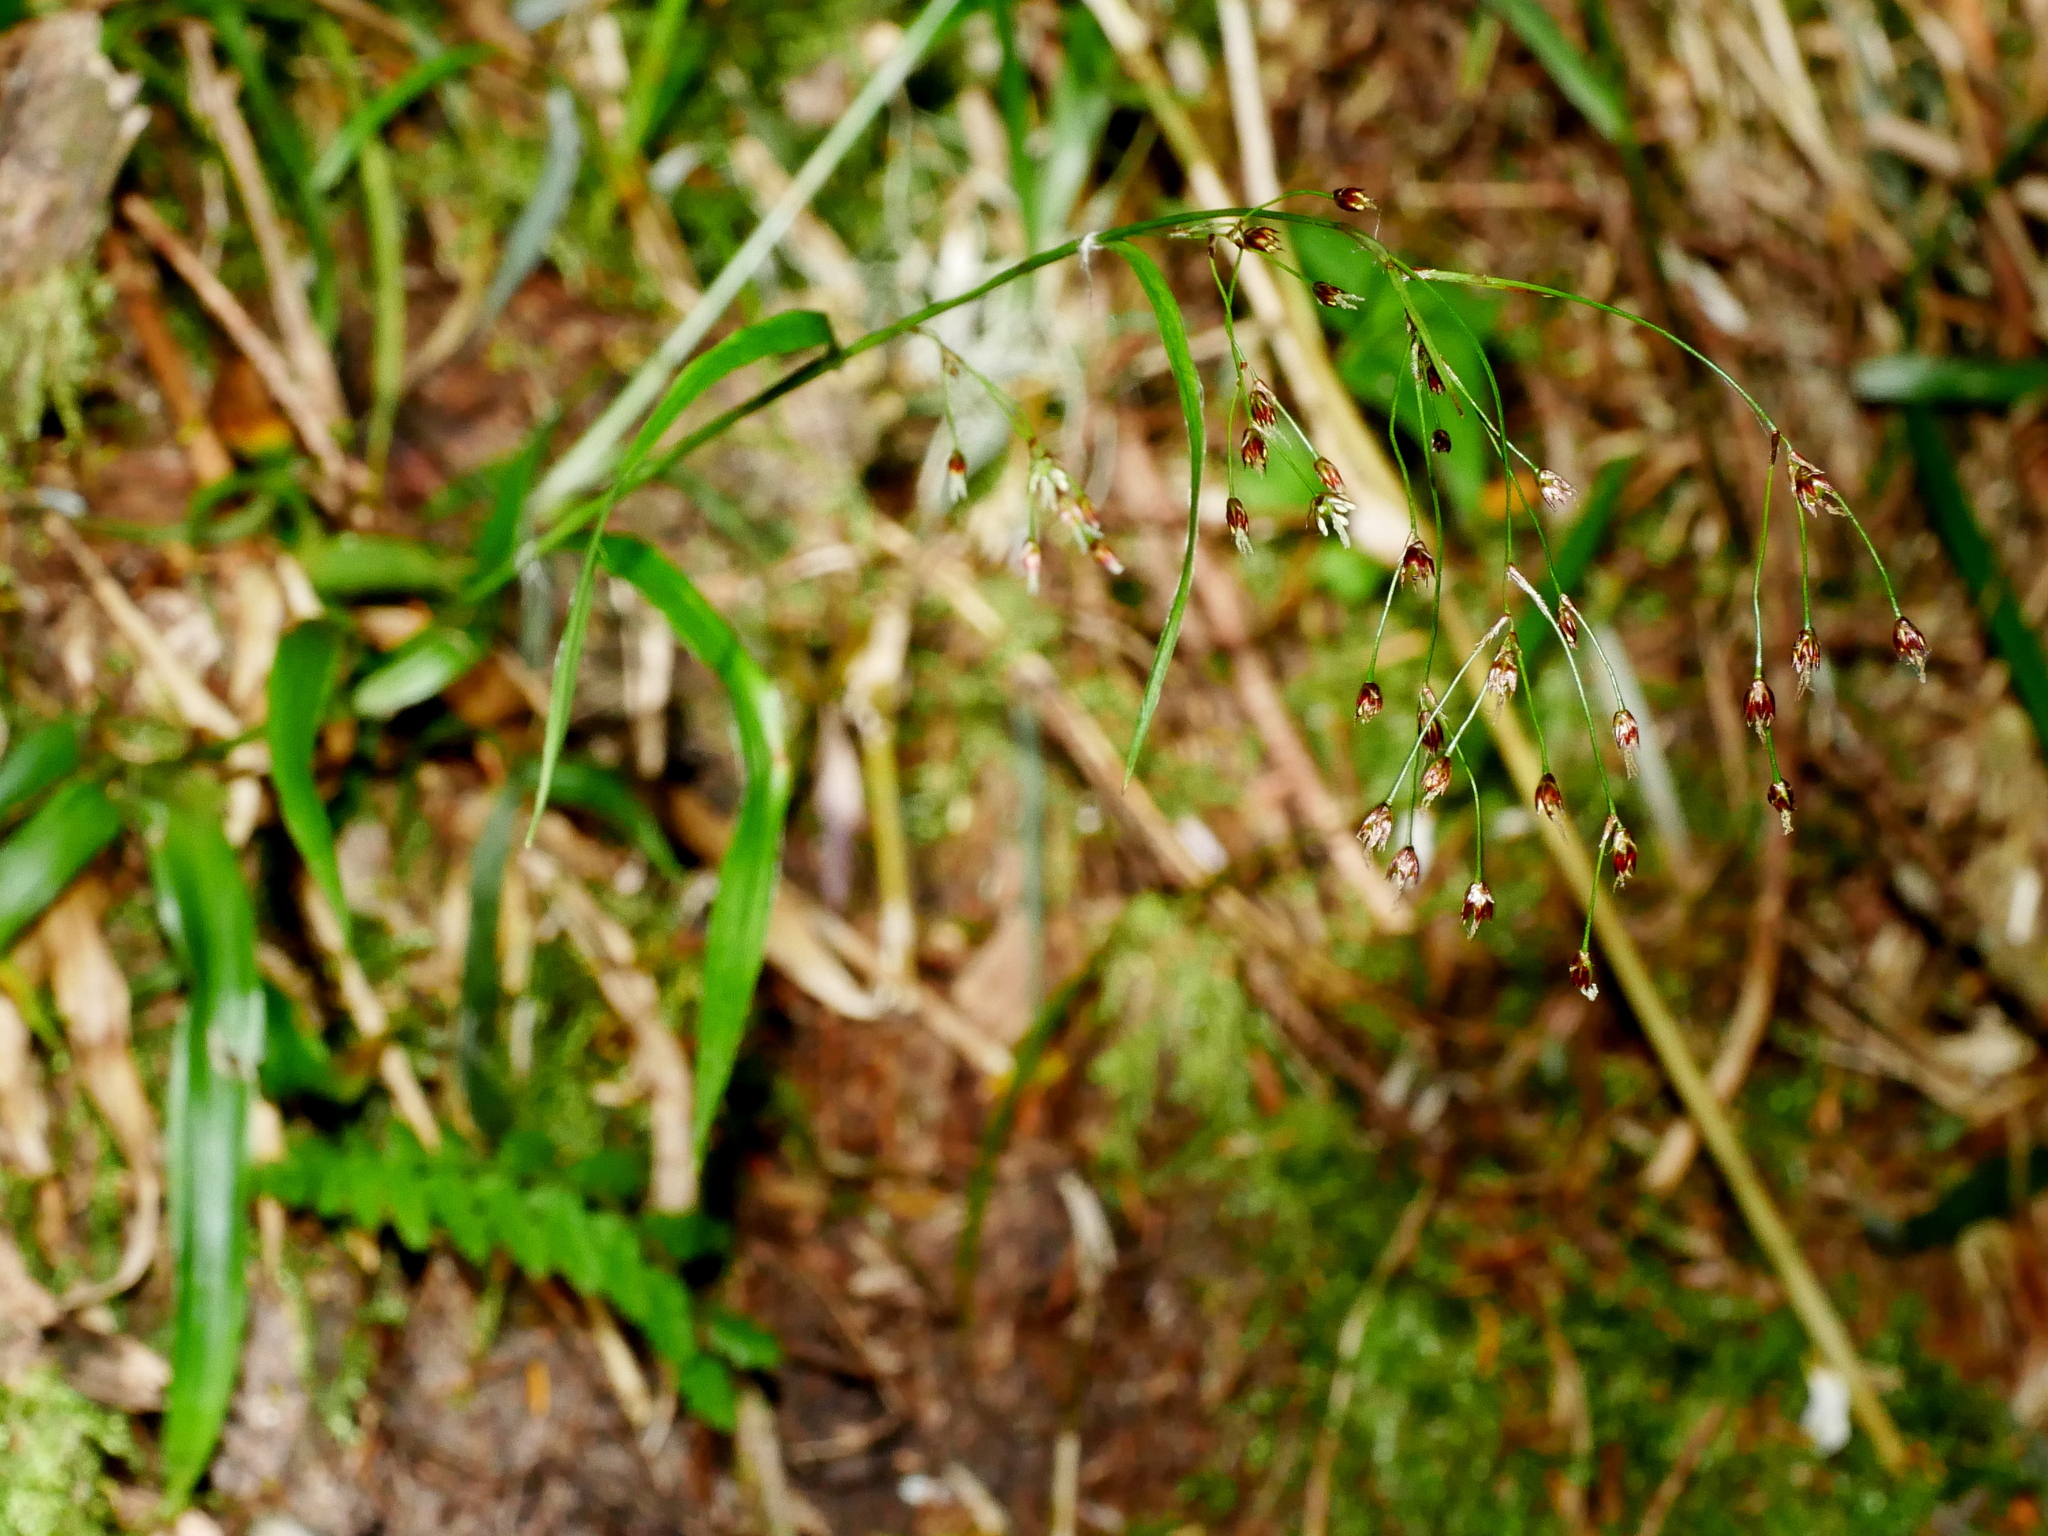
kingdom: Plantae
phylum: Tracheophyta
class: Liliopsida
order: Poales
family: Juncaceae
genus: Luzula
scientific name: Luzula effusa
